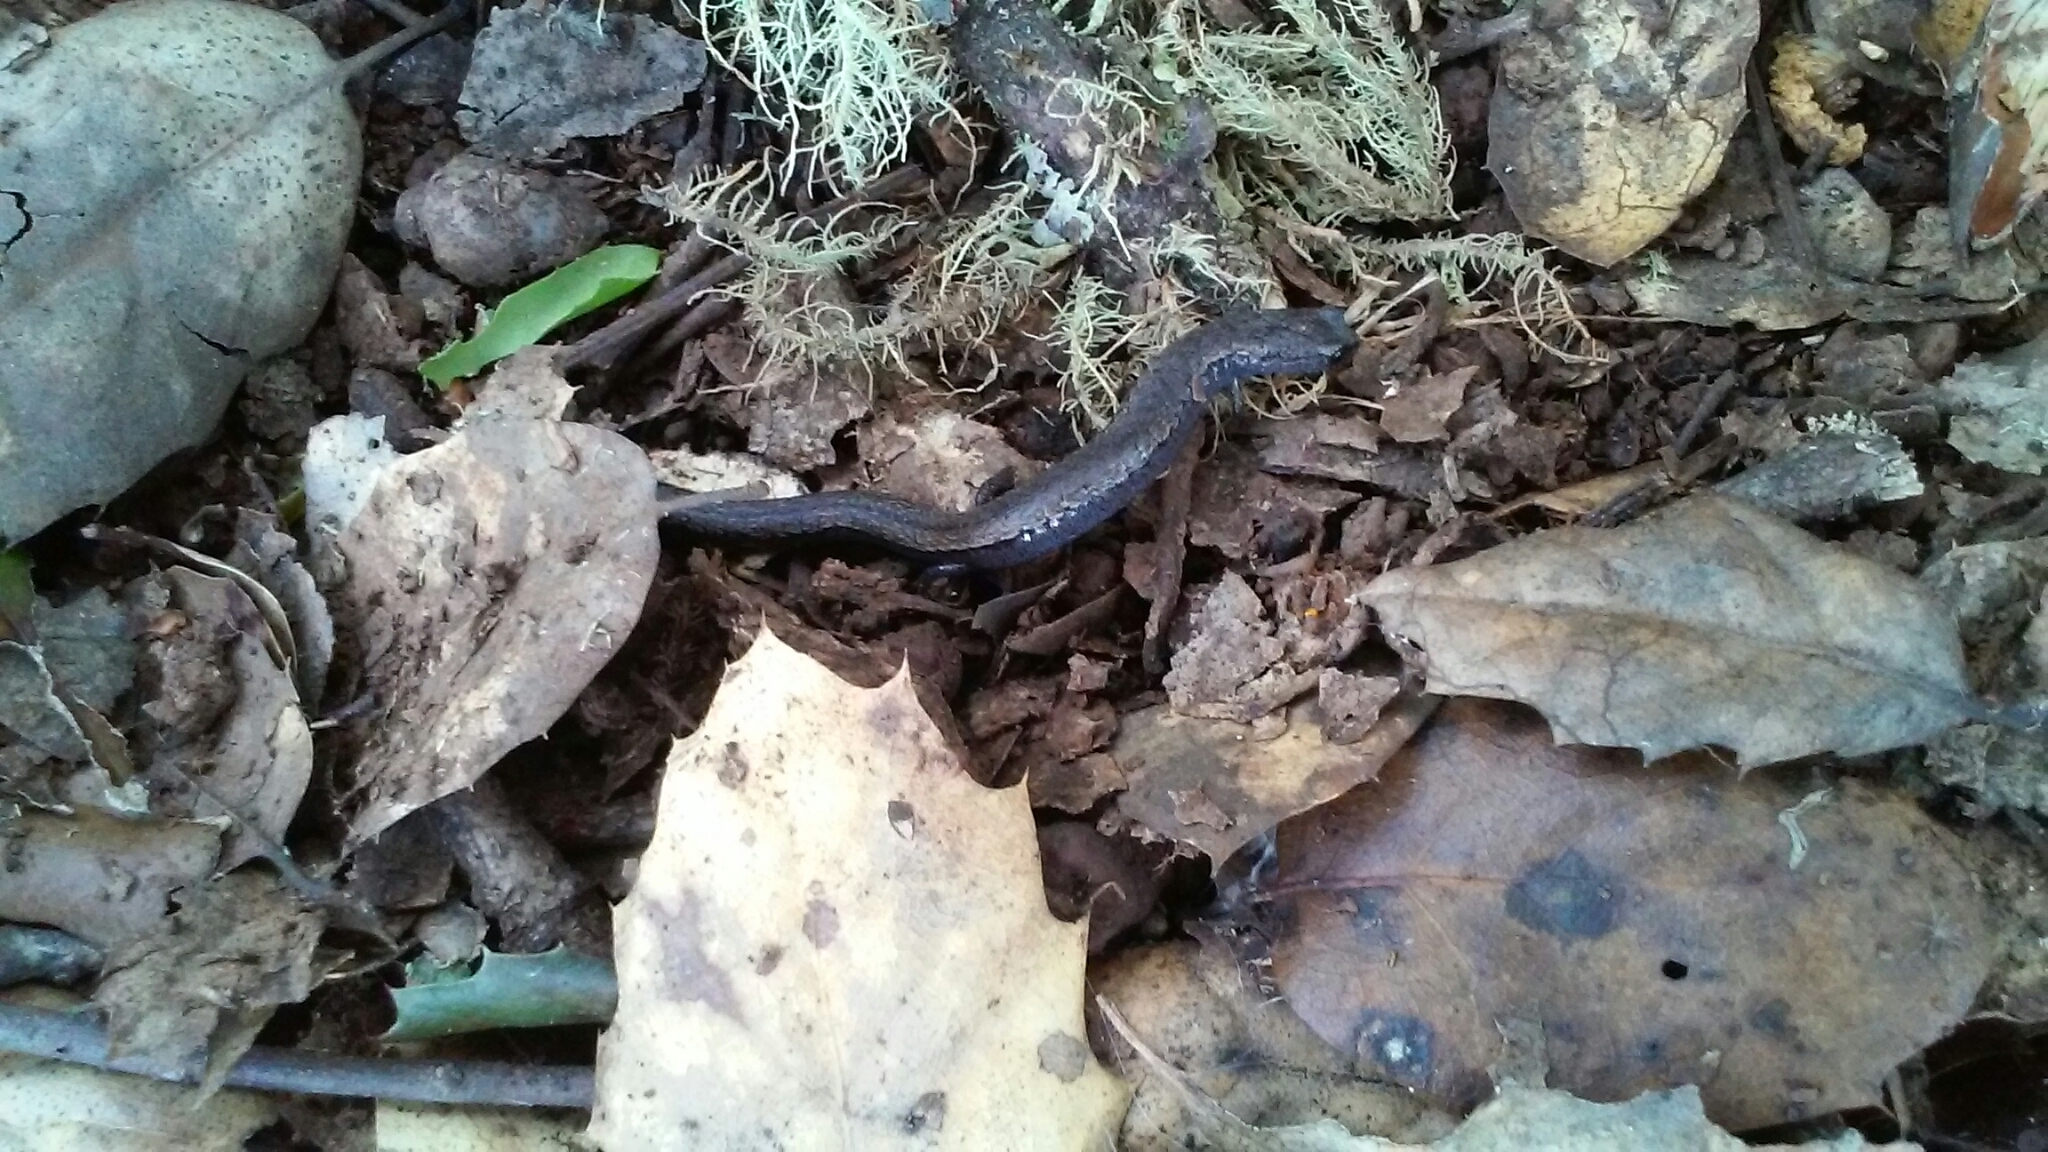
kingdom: Animalia
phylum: Chordata
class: Amphibia
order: Caudata
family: Plethodontidae
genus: Batrachoseps
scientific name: Batrachoseps attenuatus
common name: California slender salamander
